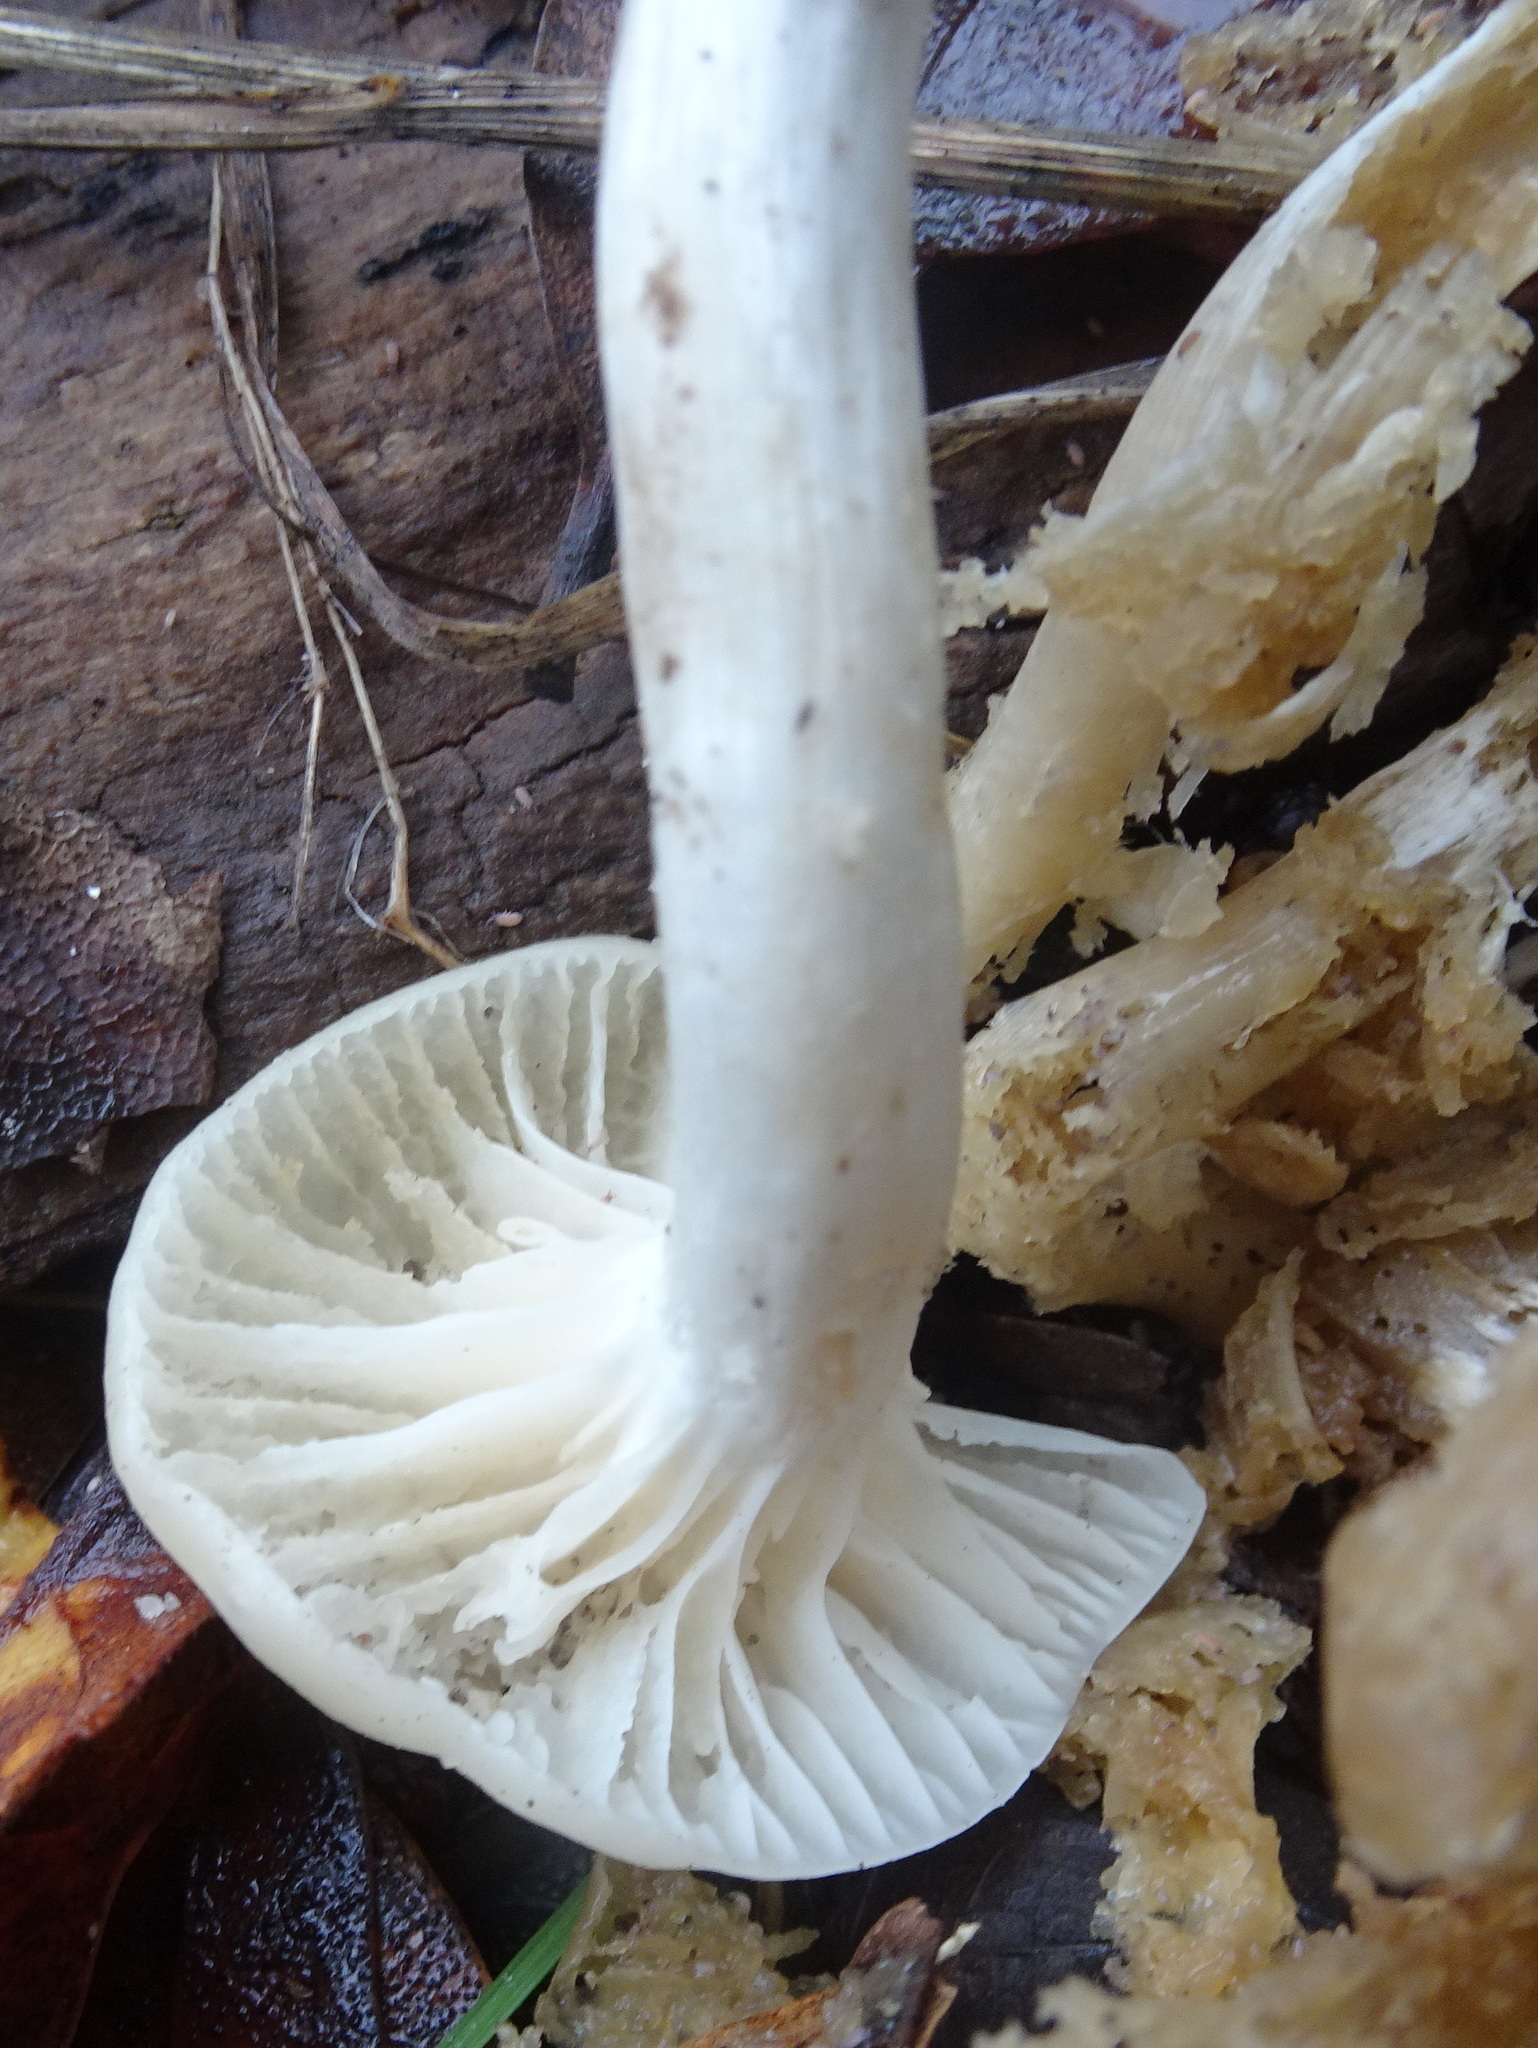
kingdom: Fungi
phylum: Basidiomycota
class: Agaricomycetes
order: Agaricales
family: Hygrophoraceae
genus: Cuphophyllus
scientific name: Cuphophyllus virgineus
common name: Snowy waxcap
